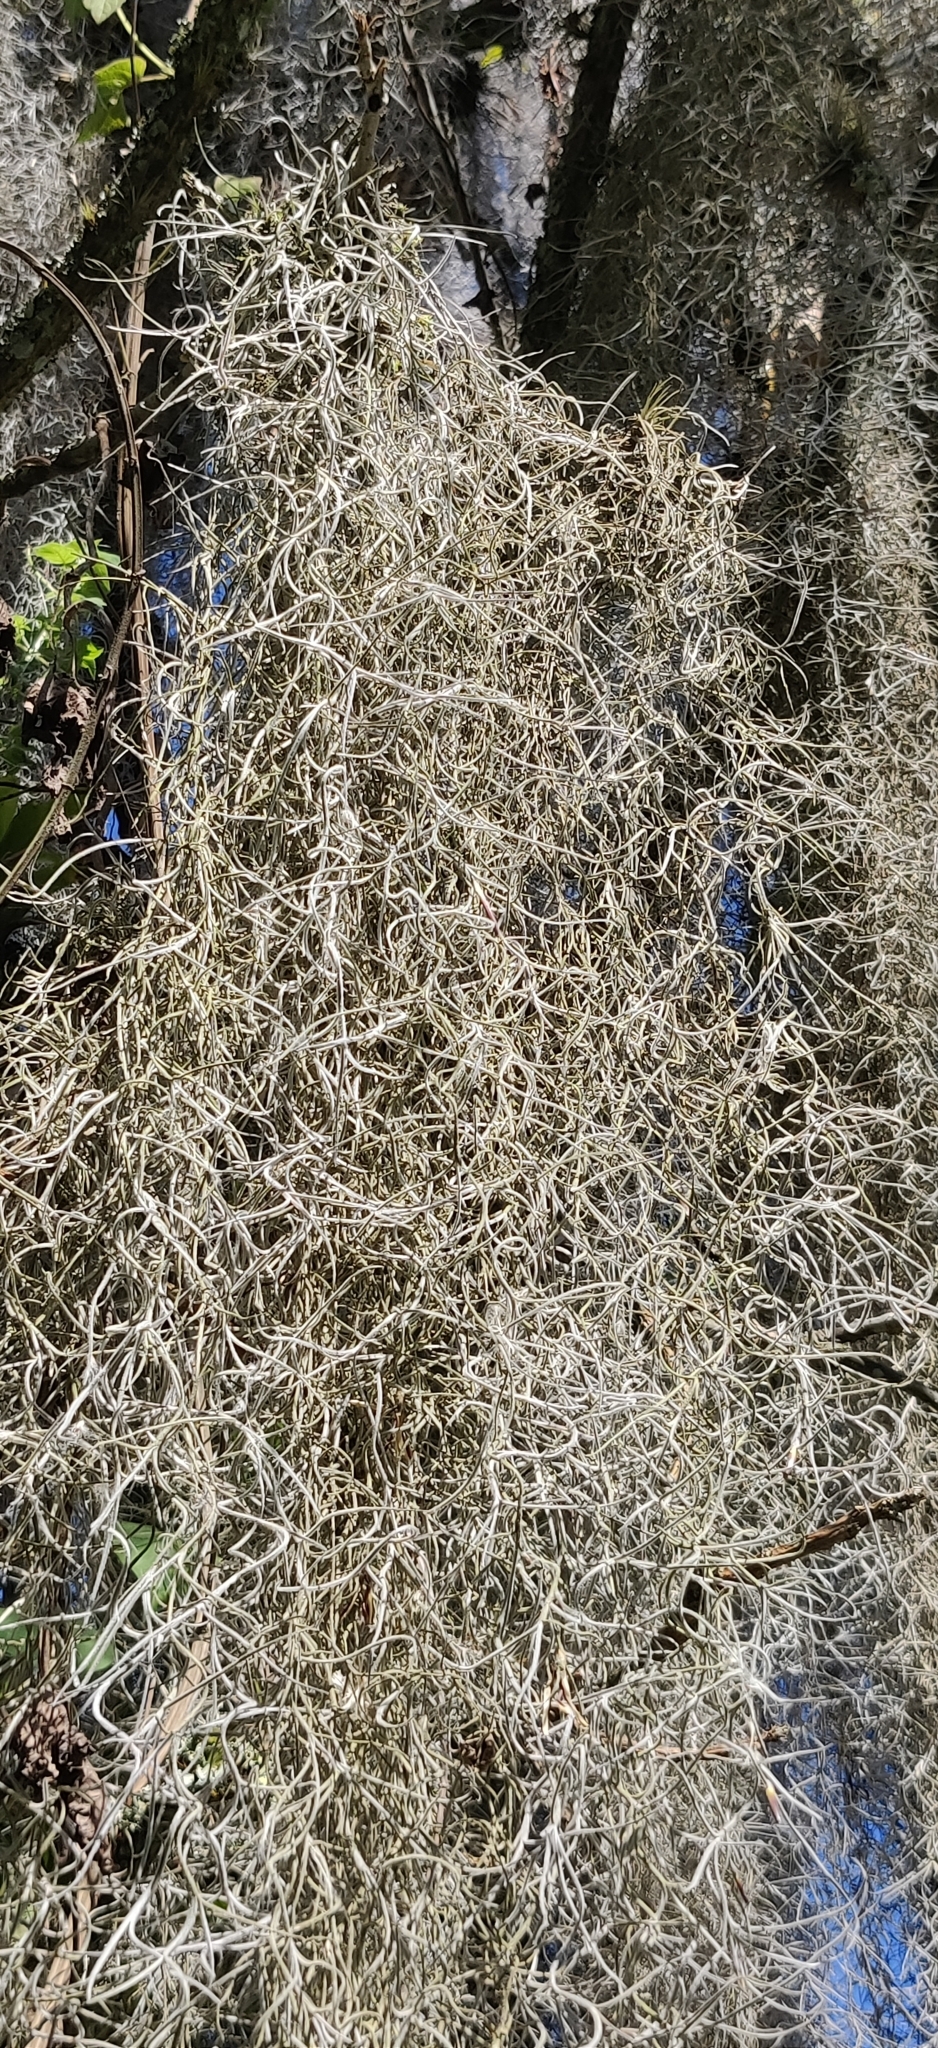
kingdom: Plantae
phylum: Tracheophyta
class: Liliopsida
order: Poales
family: Bromeliaceae
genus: Tillandsia
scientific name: Tillandsia usneoides
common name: Spanish moss
